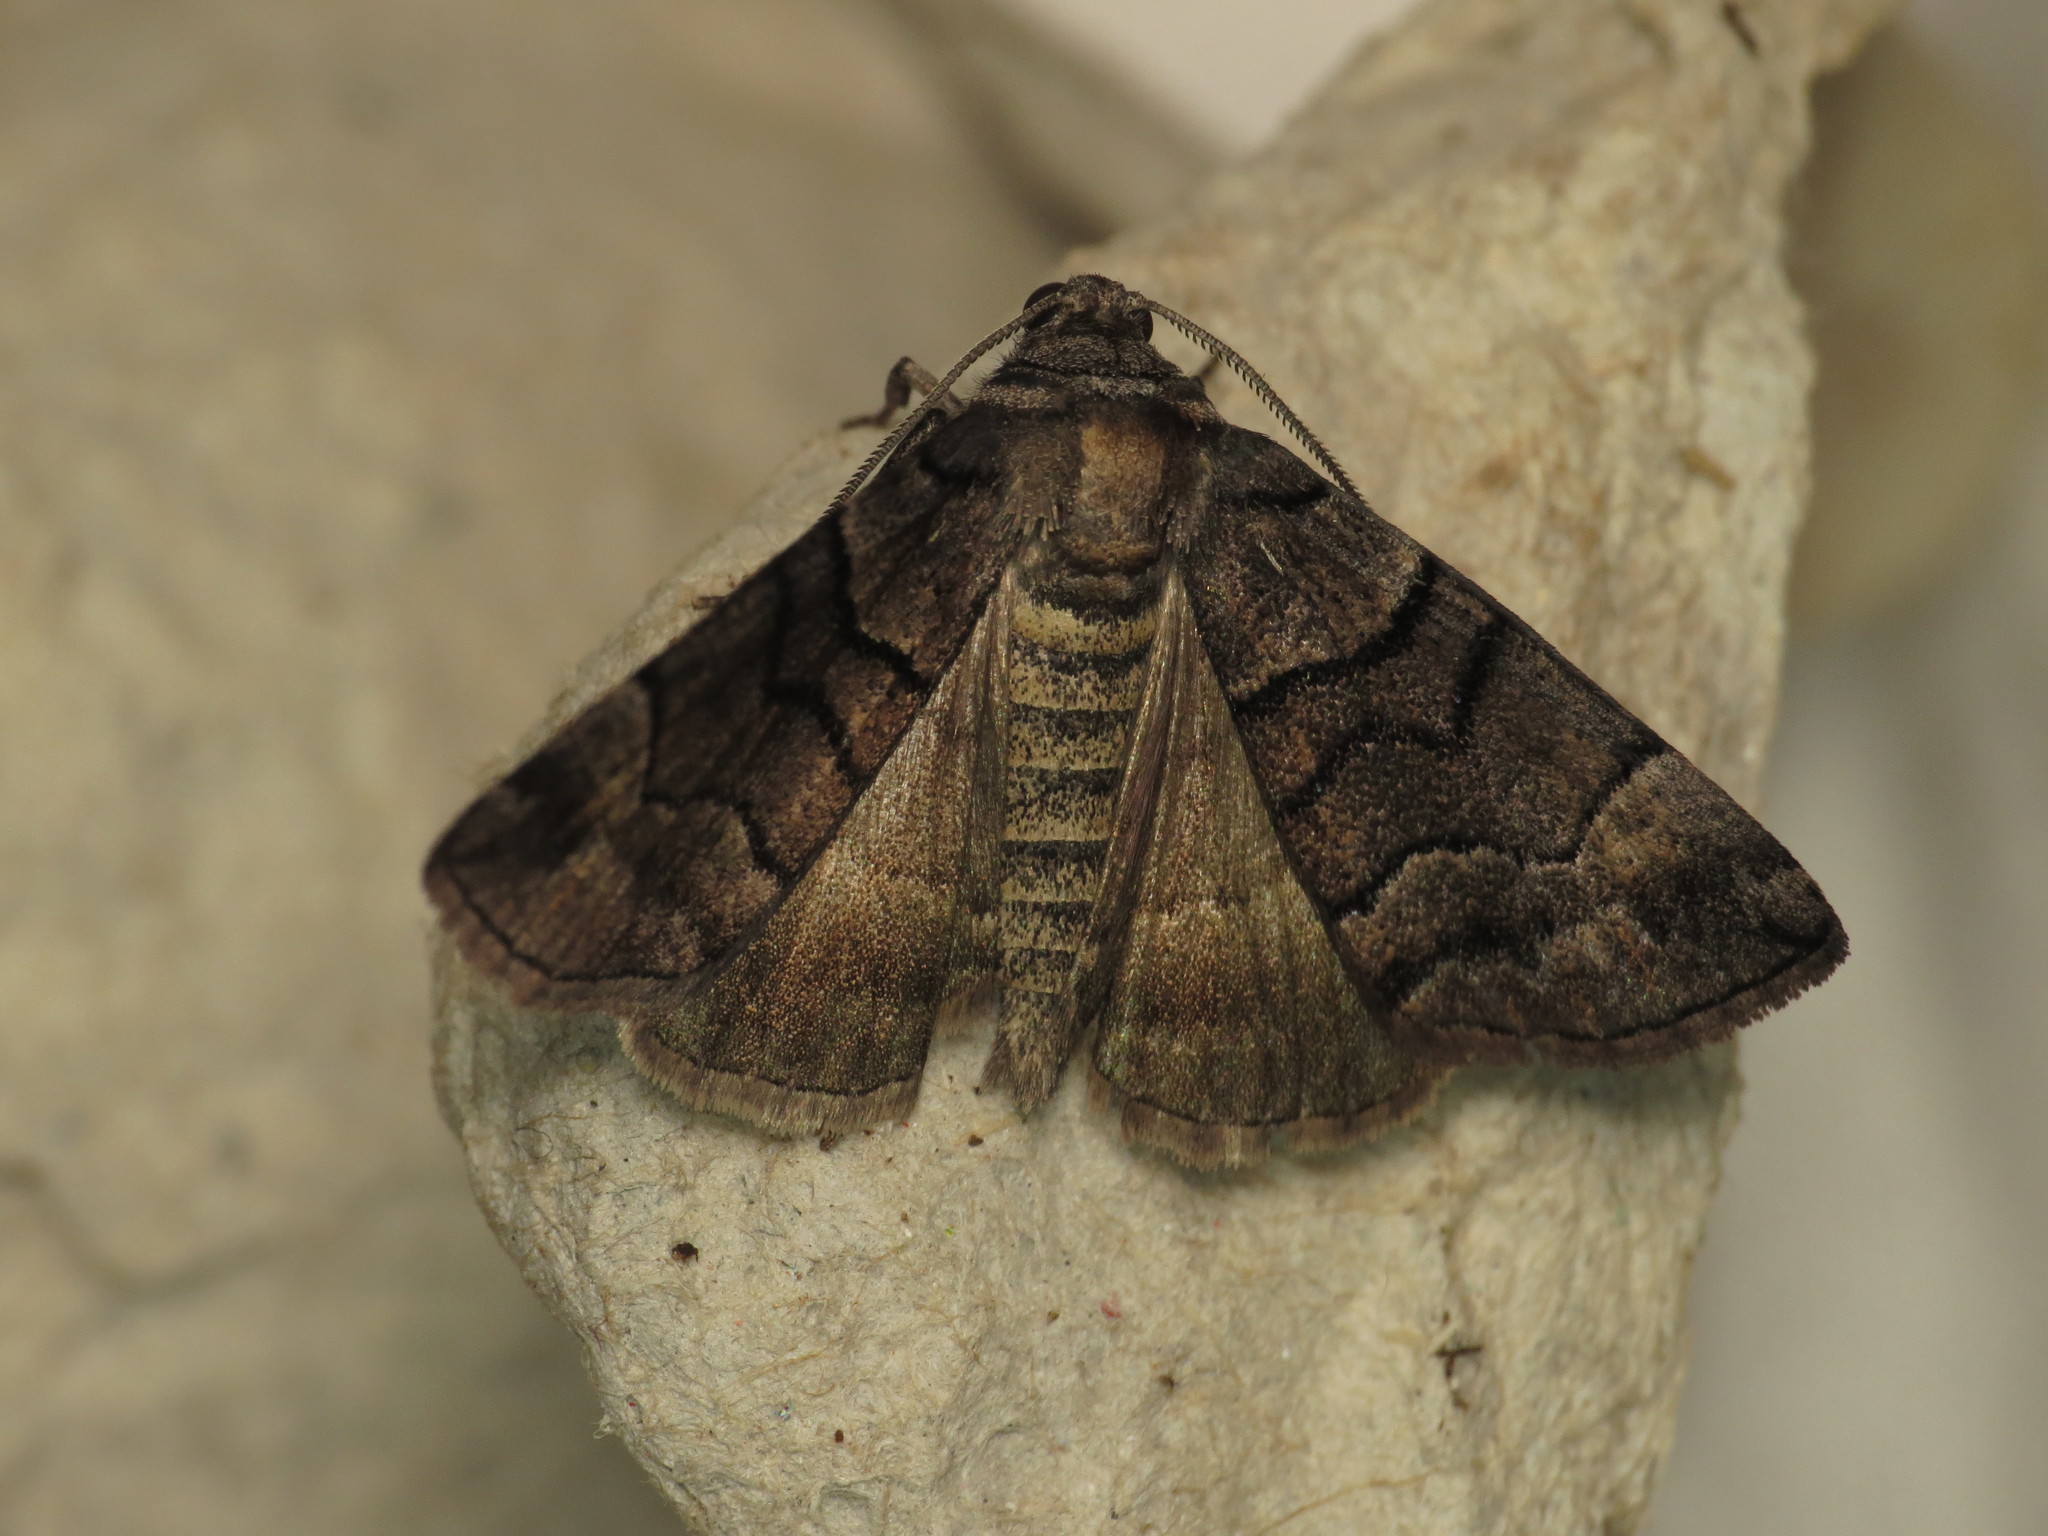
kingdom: Animalia
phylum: Arthropoda
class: Insecta
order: Lepidoptera
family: Geometridae
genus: Dysbatus
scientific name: Dysbatus singularis
